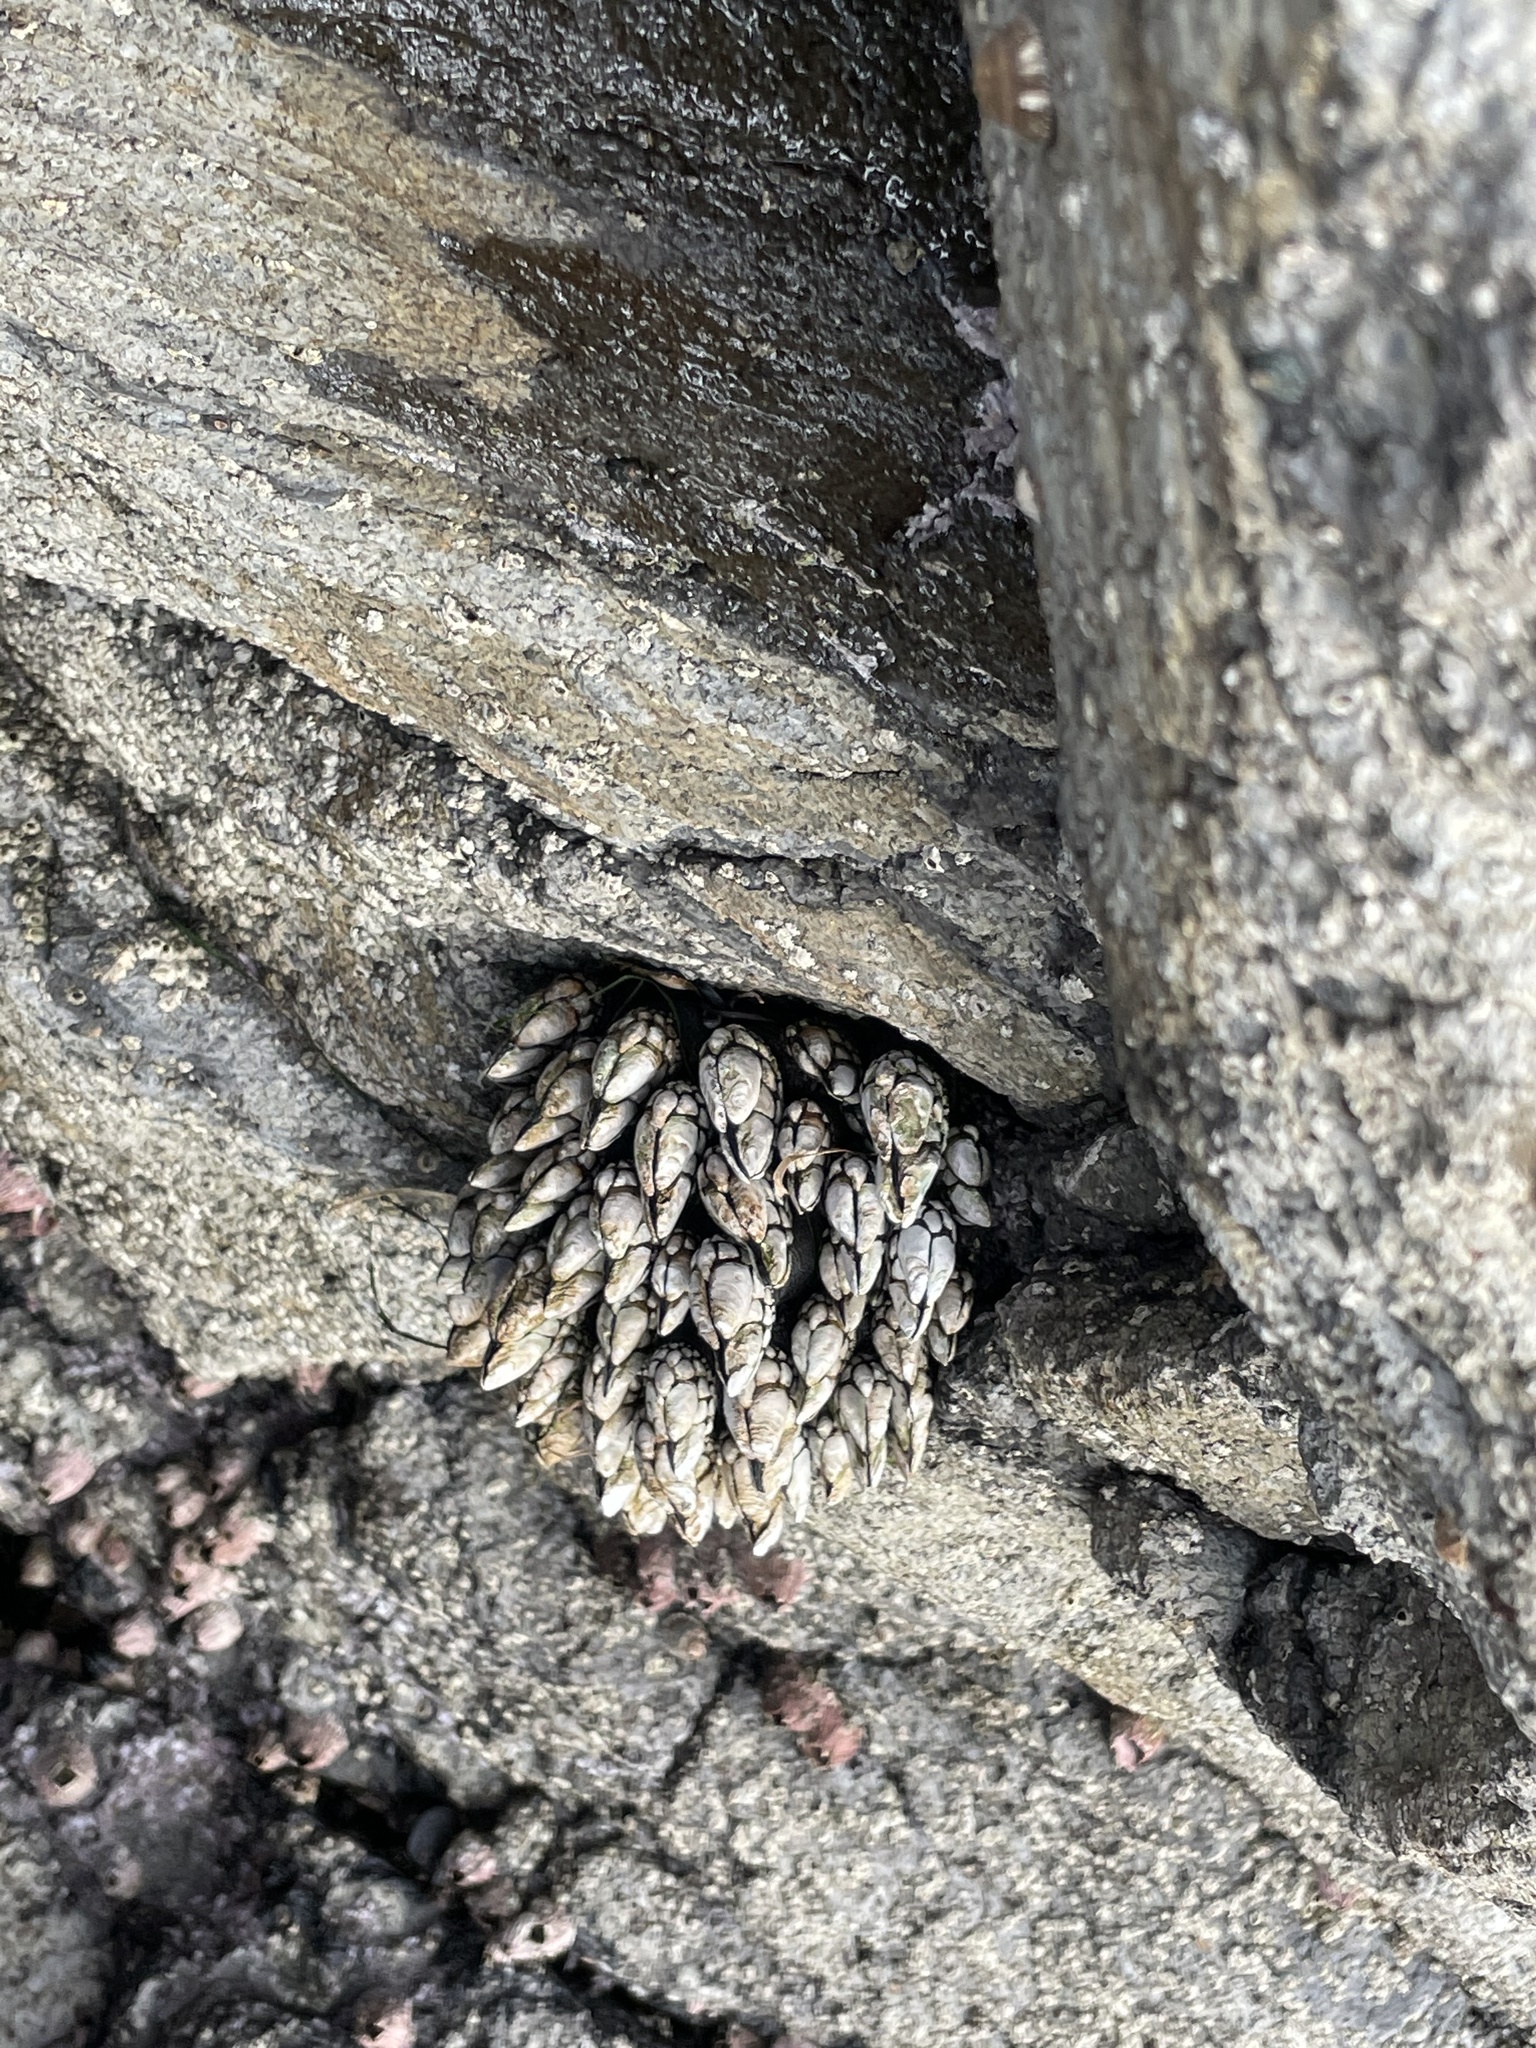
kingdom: Animalia
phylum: Arthropoda
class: Maxillopoda
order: Pedunculata
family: Pollicipedidae
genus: Pollicipes
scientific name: Pollicipes polymerus
